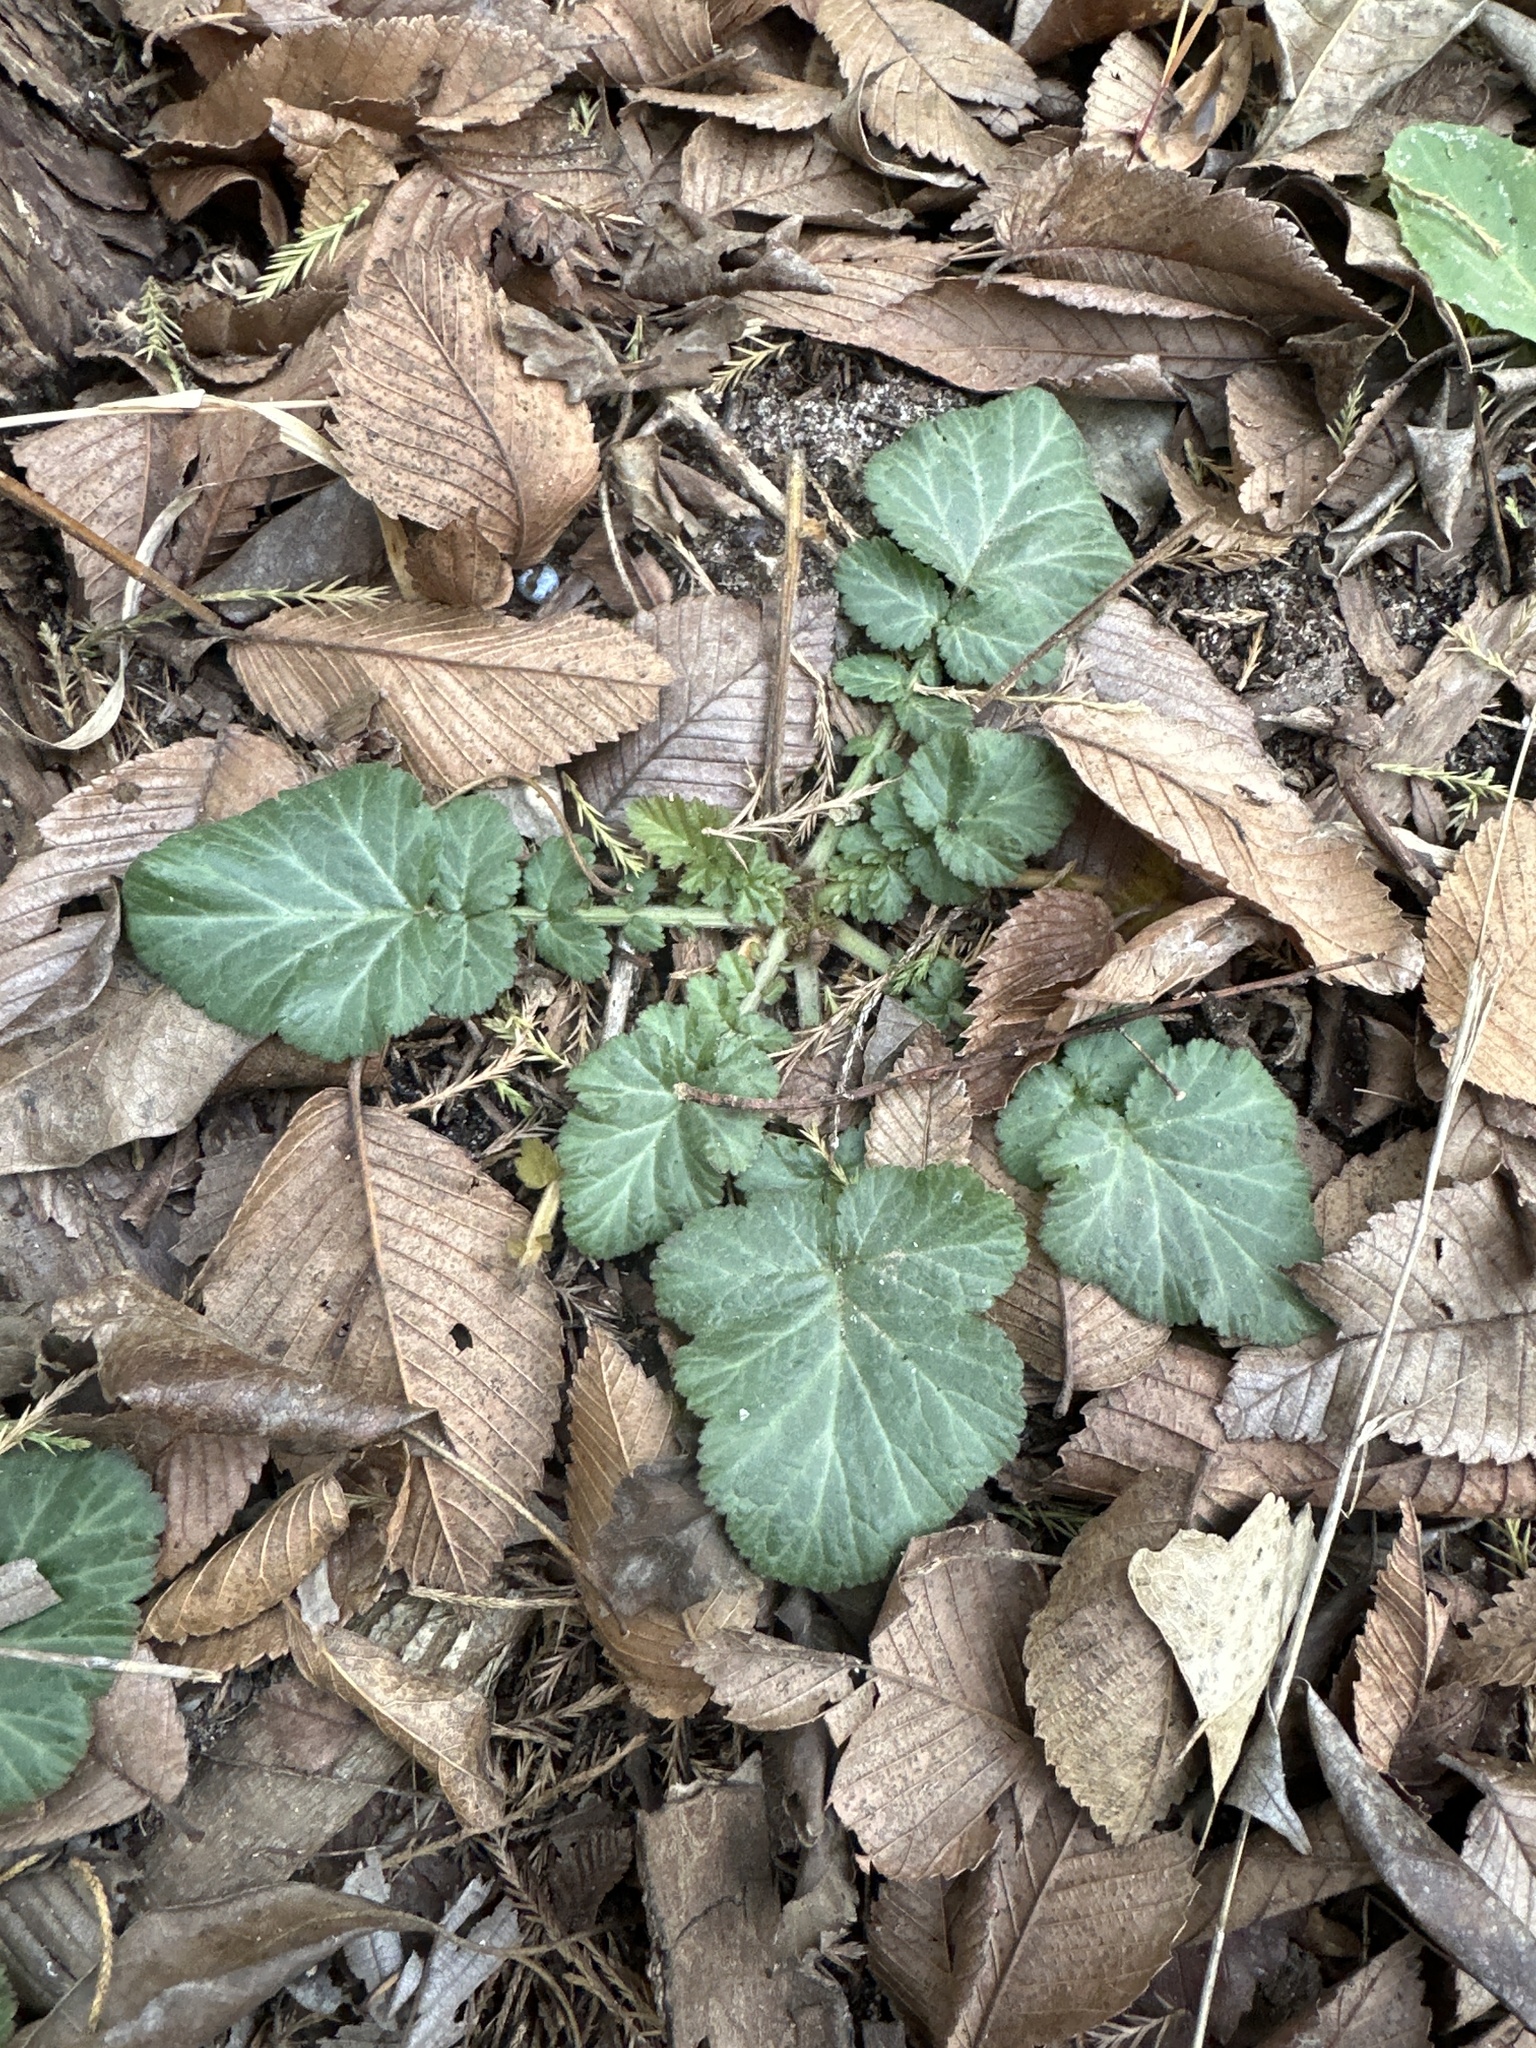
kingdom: Plantae
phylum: Tracheophyta
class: Magnoliopsida
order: Rosales
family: Rosaceae
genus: Geum
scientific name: Geum canadense
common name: White avens
